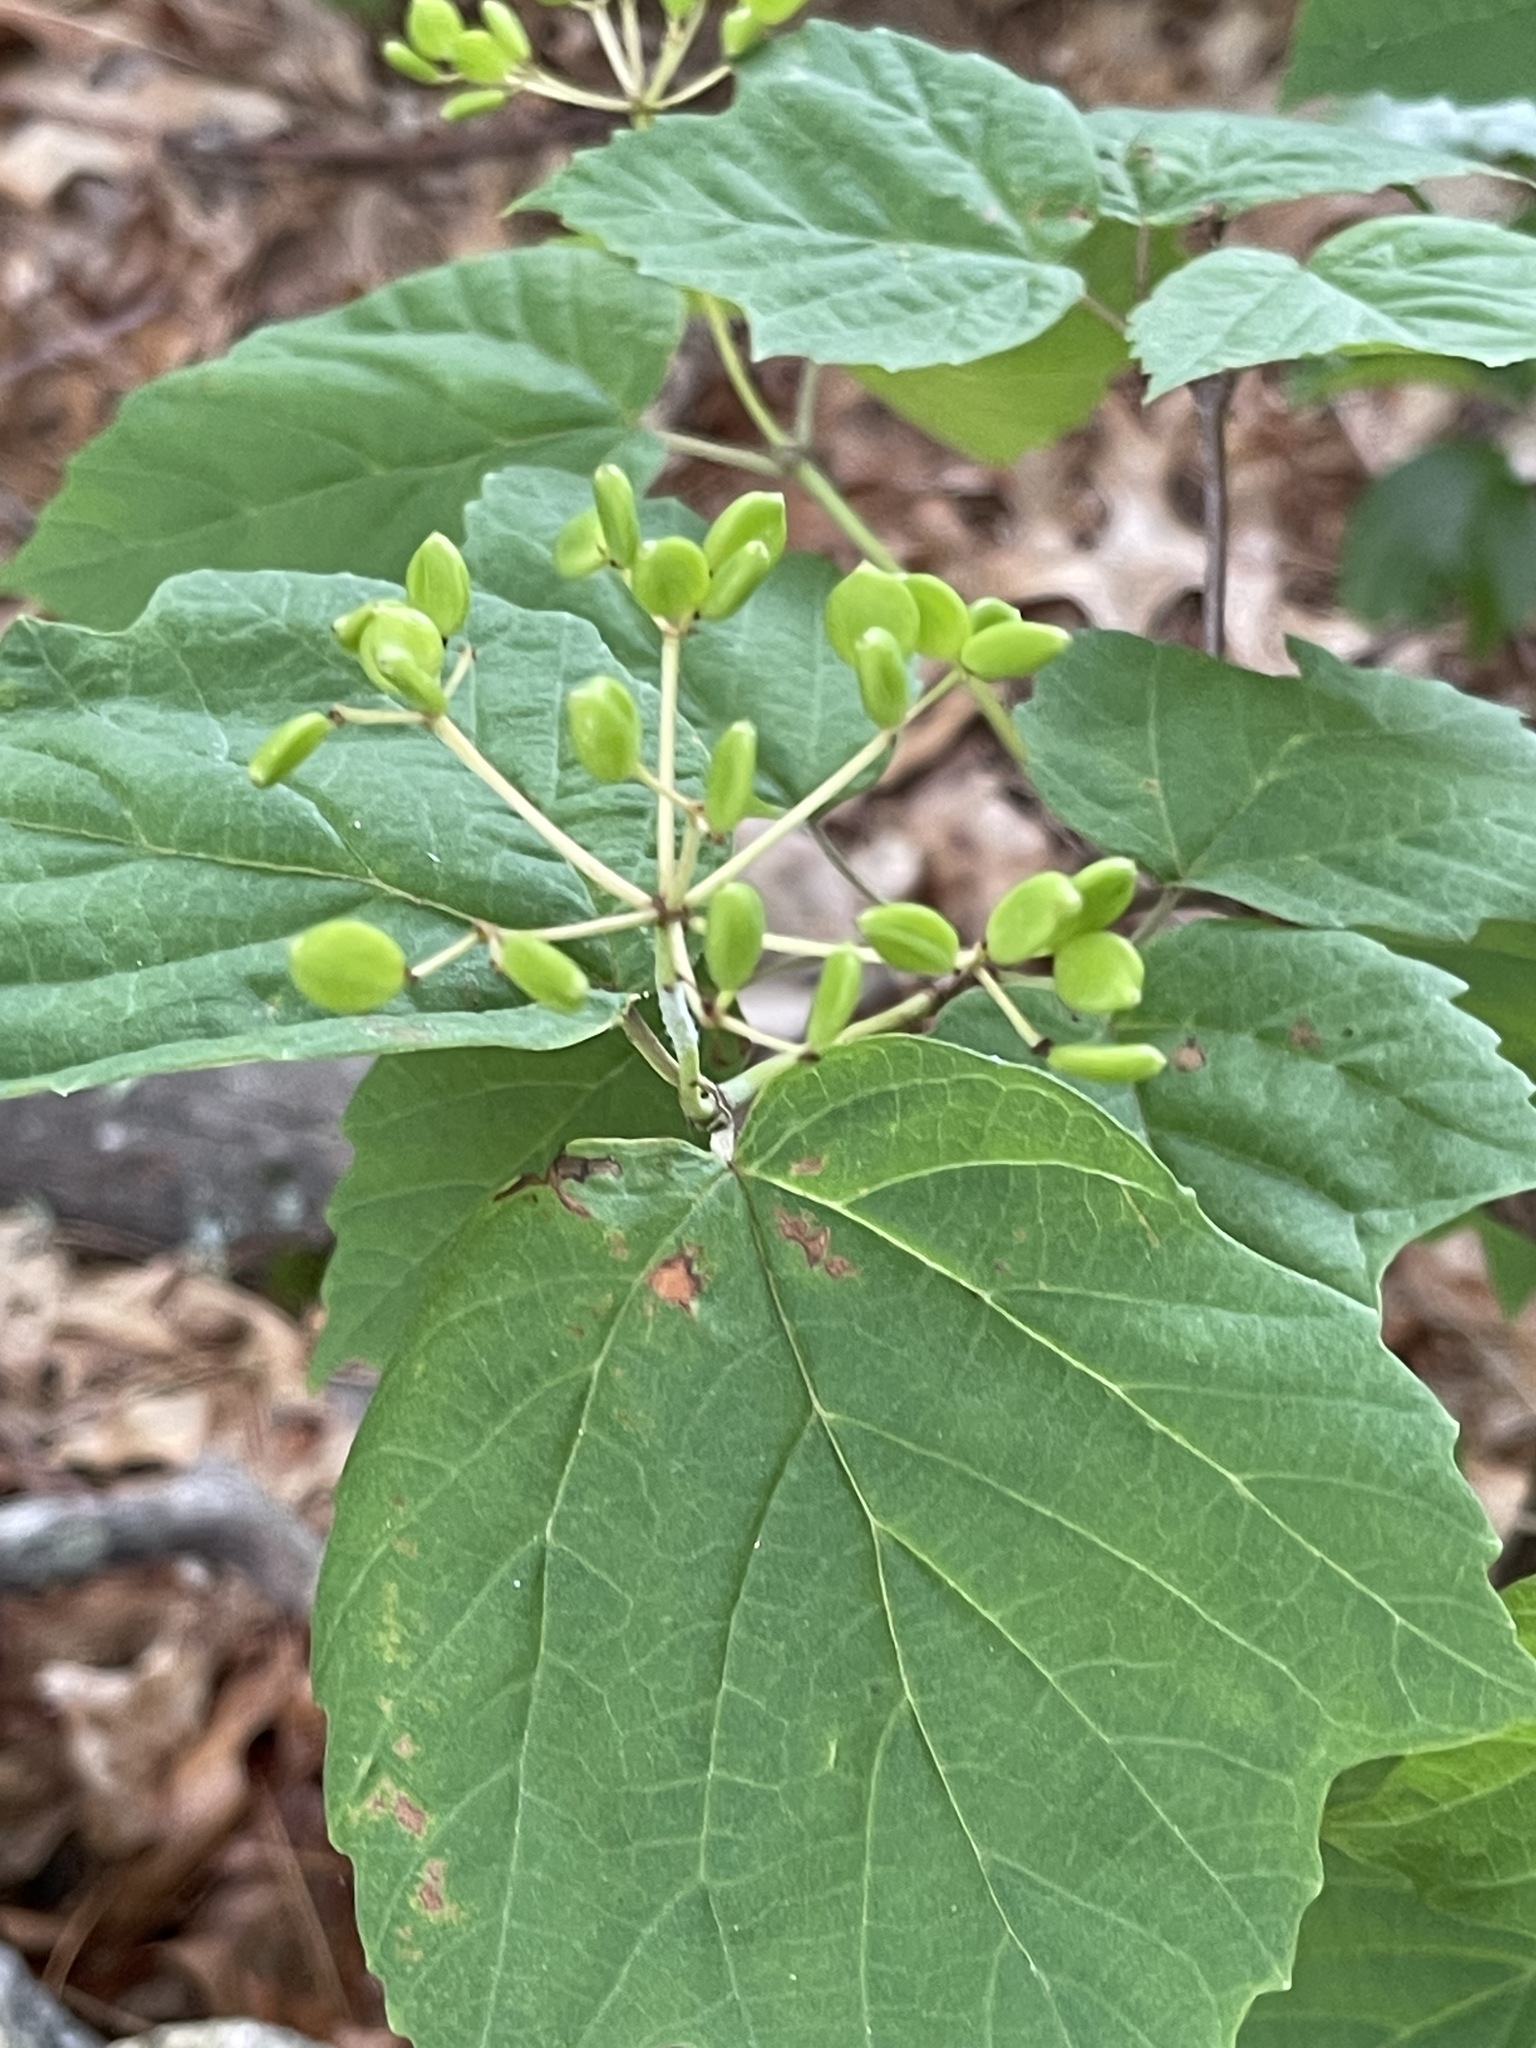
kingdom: Plantae
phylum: Tracheophyta
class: Magnoliopsida
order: Dipsacales
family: Viburnaceae
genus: Viburnum
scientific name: Viburnum acerifolium
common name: Dockmackie
